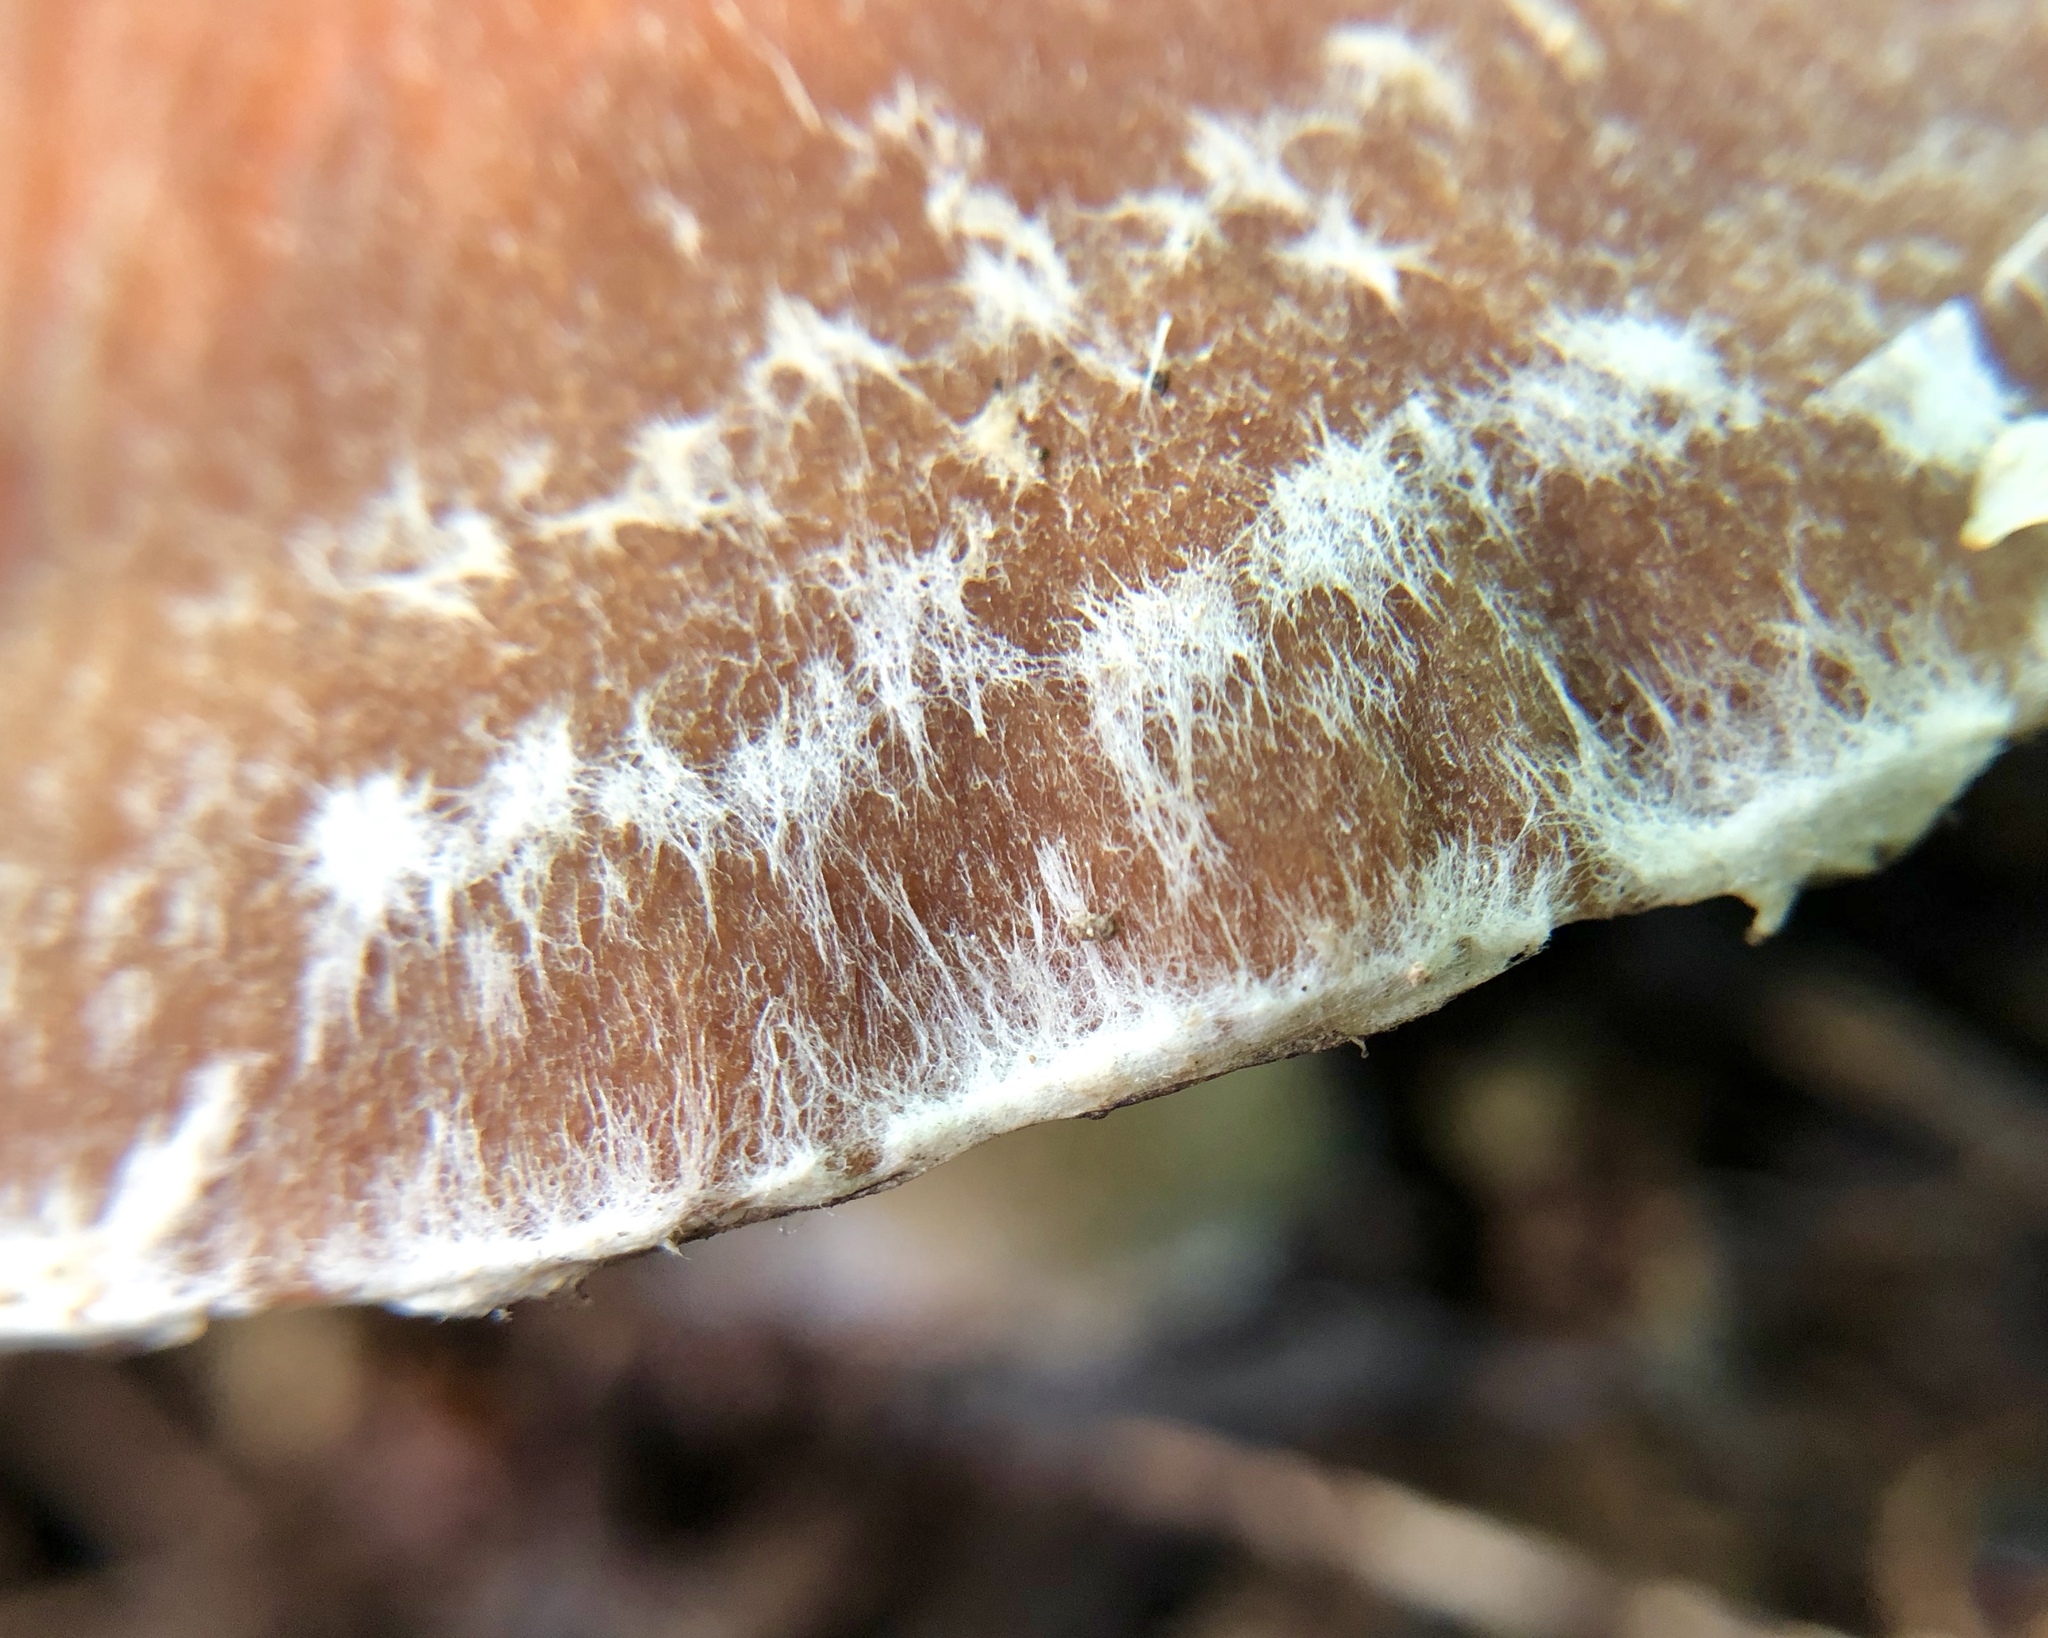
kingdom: Fungi
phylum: Basidiomycota
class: Agaricomycetes
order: Agaricales
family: Psathyrellaceae
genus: Typhrasa
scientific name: Typhrasa gossypina
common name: Wrinkled psathyrella
